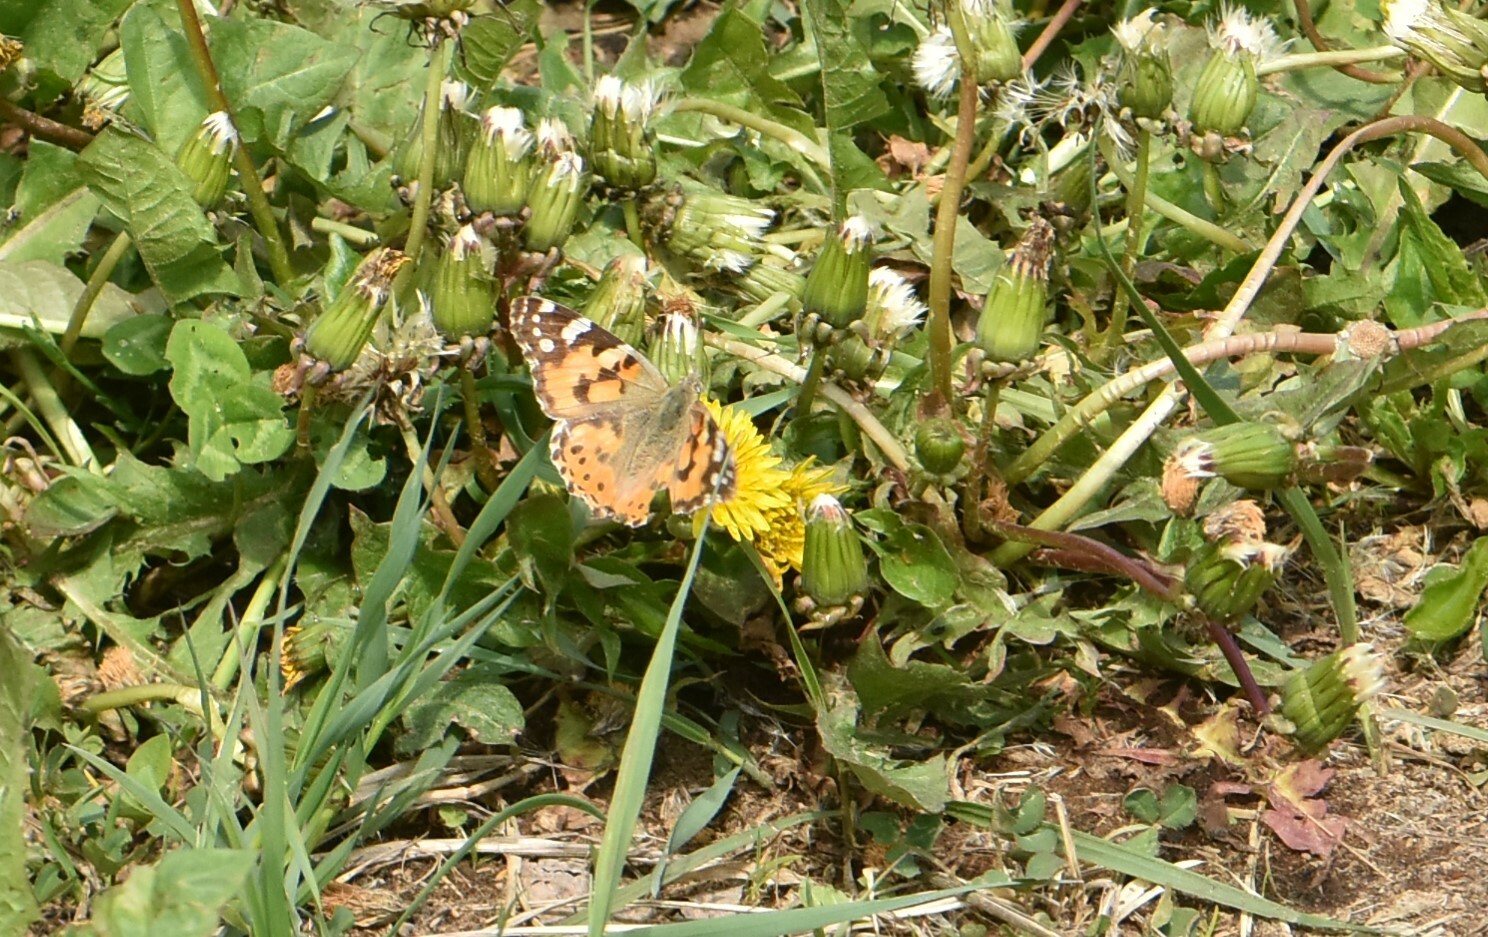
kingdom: Animalia
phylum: Arthropoda
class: Insecta
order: Lepidoptera
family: Nymphalidae
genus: Vanessa
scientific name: Vanessa cardui
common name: Painted lady
